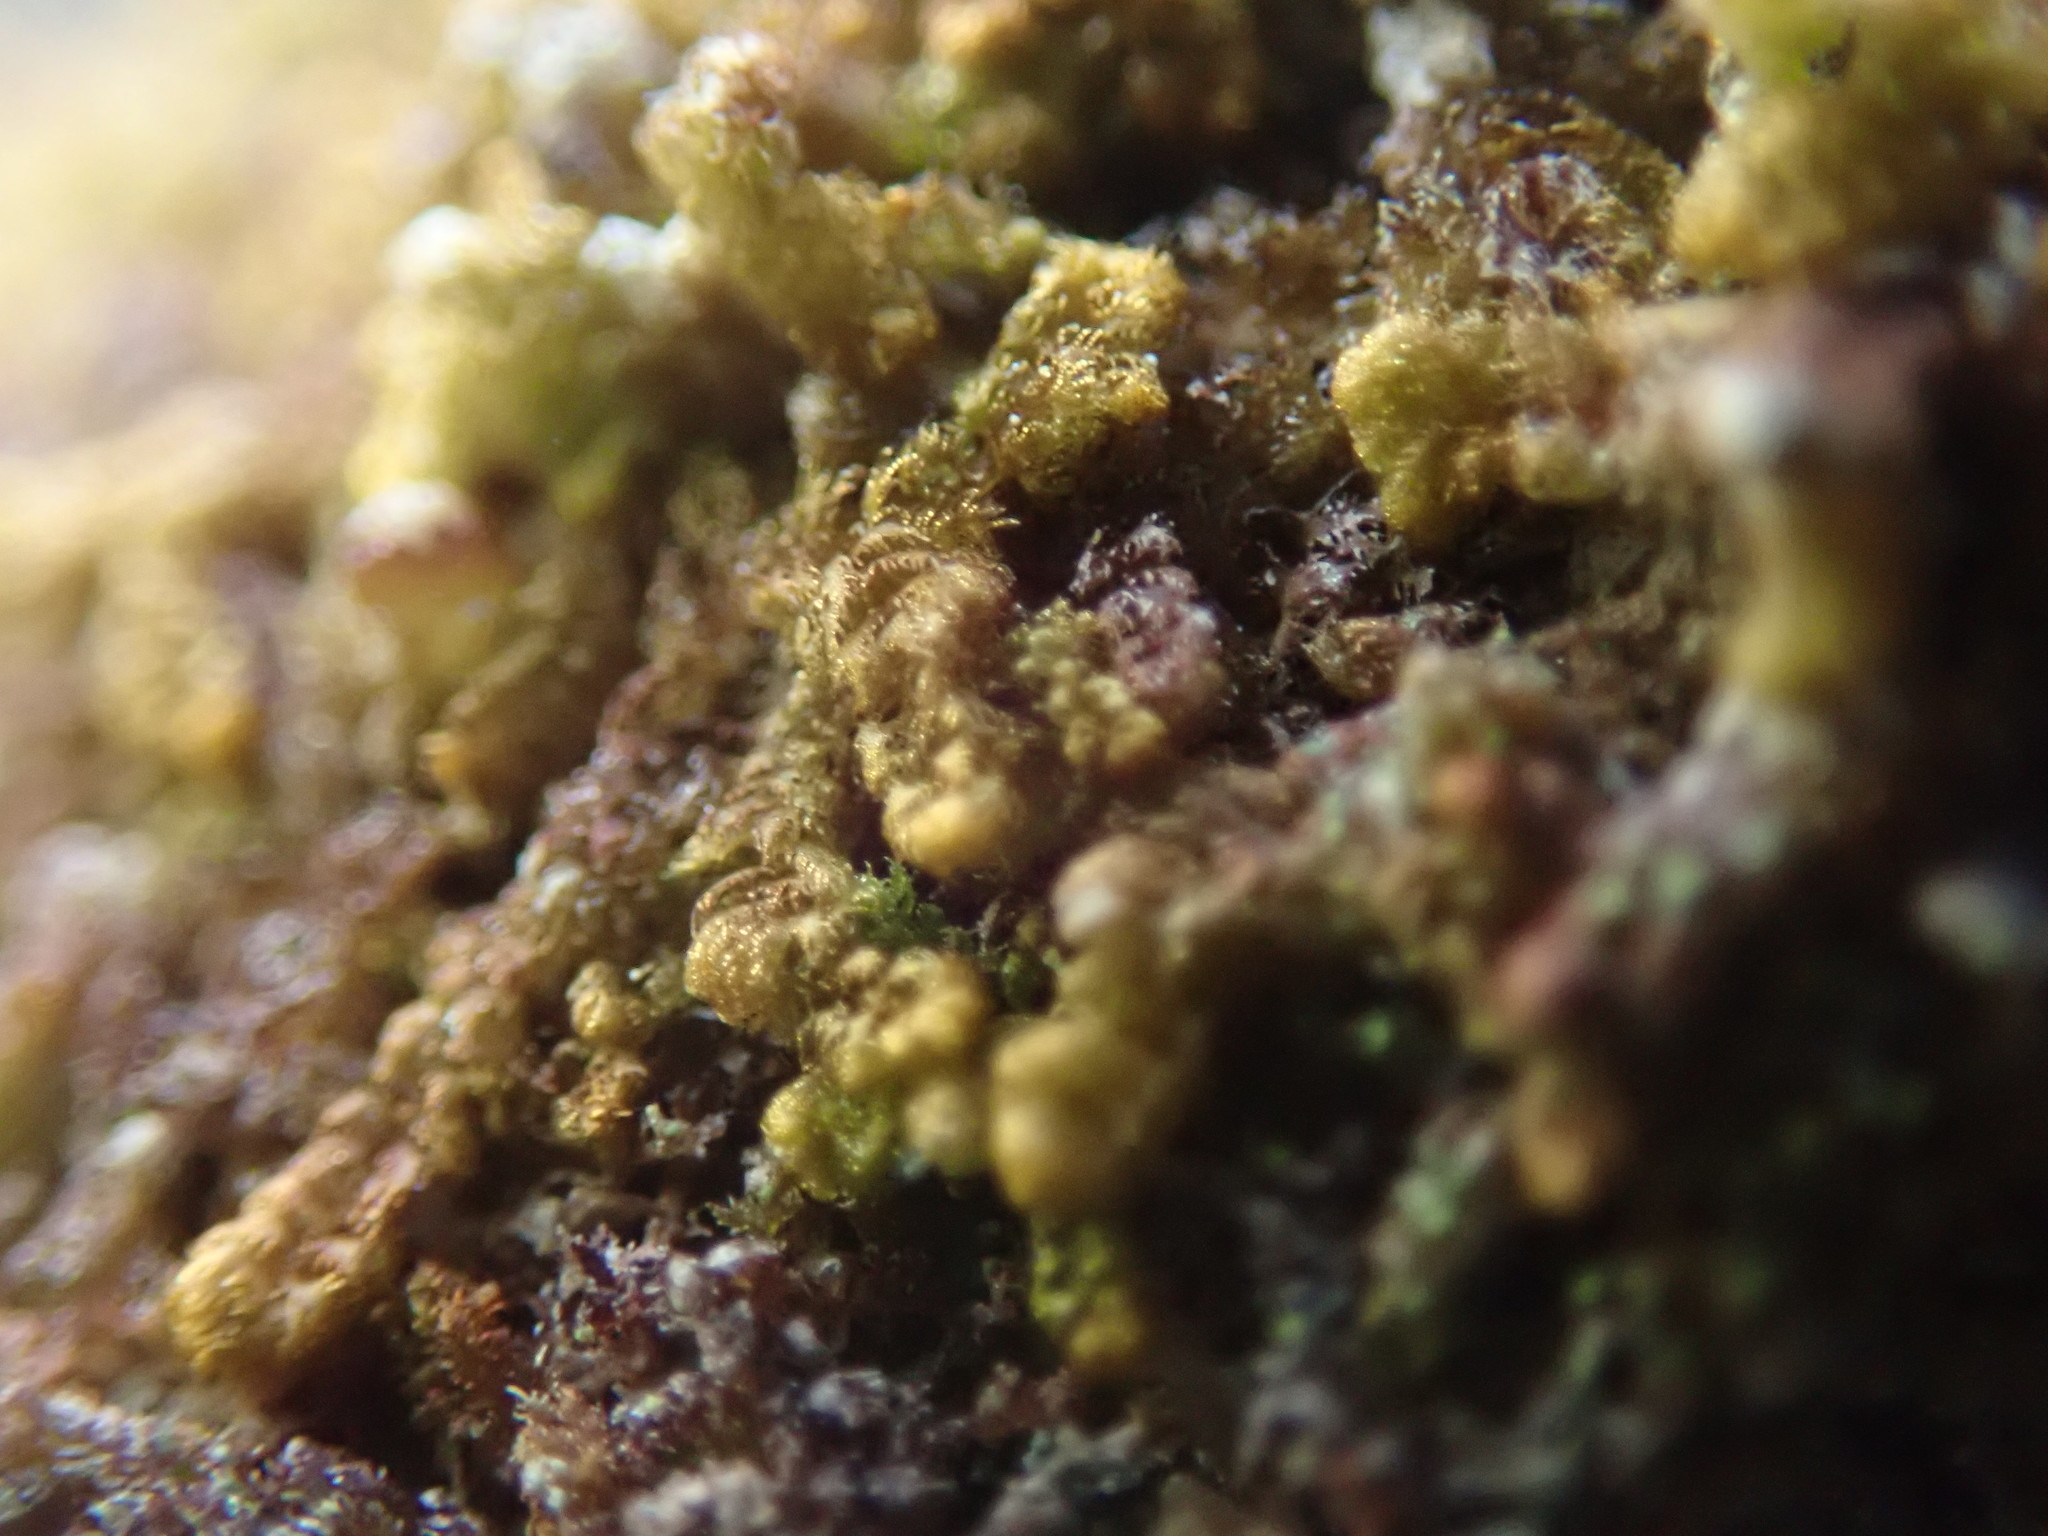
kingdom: Plantae
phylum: Marchantiophyta
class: Jungermanniopsida
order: Ptilidiales
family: Ptilidiaceae
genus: Ptilidium
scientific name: Ptilidium pulcherrimum
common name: Tree fringewort
